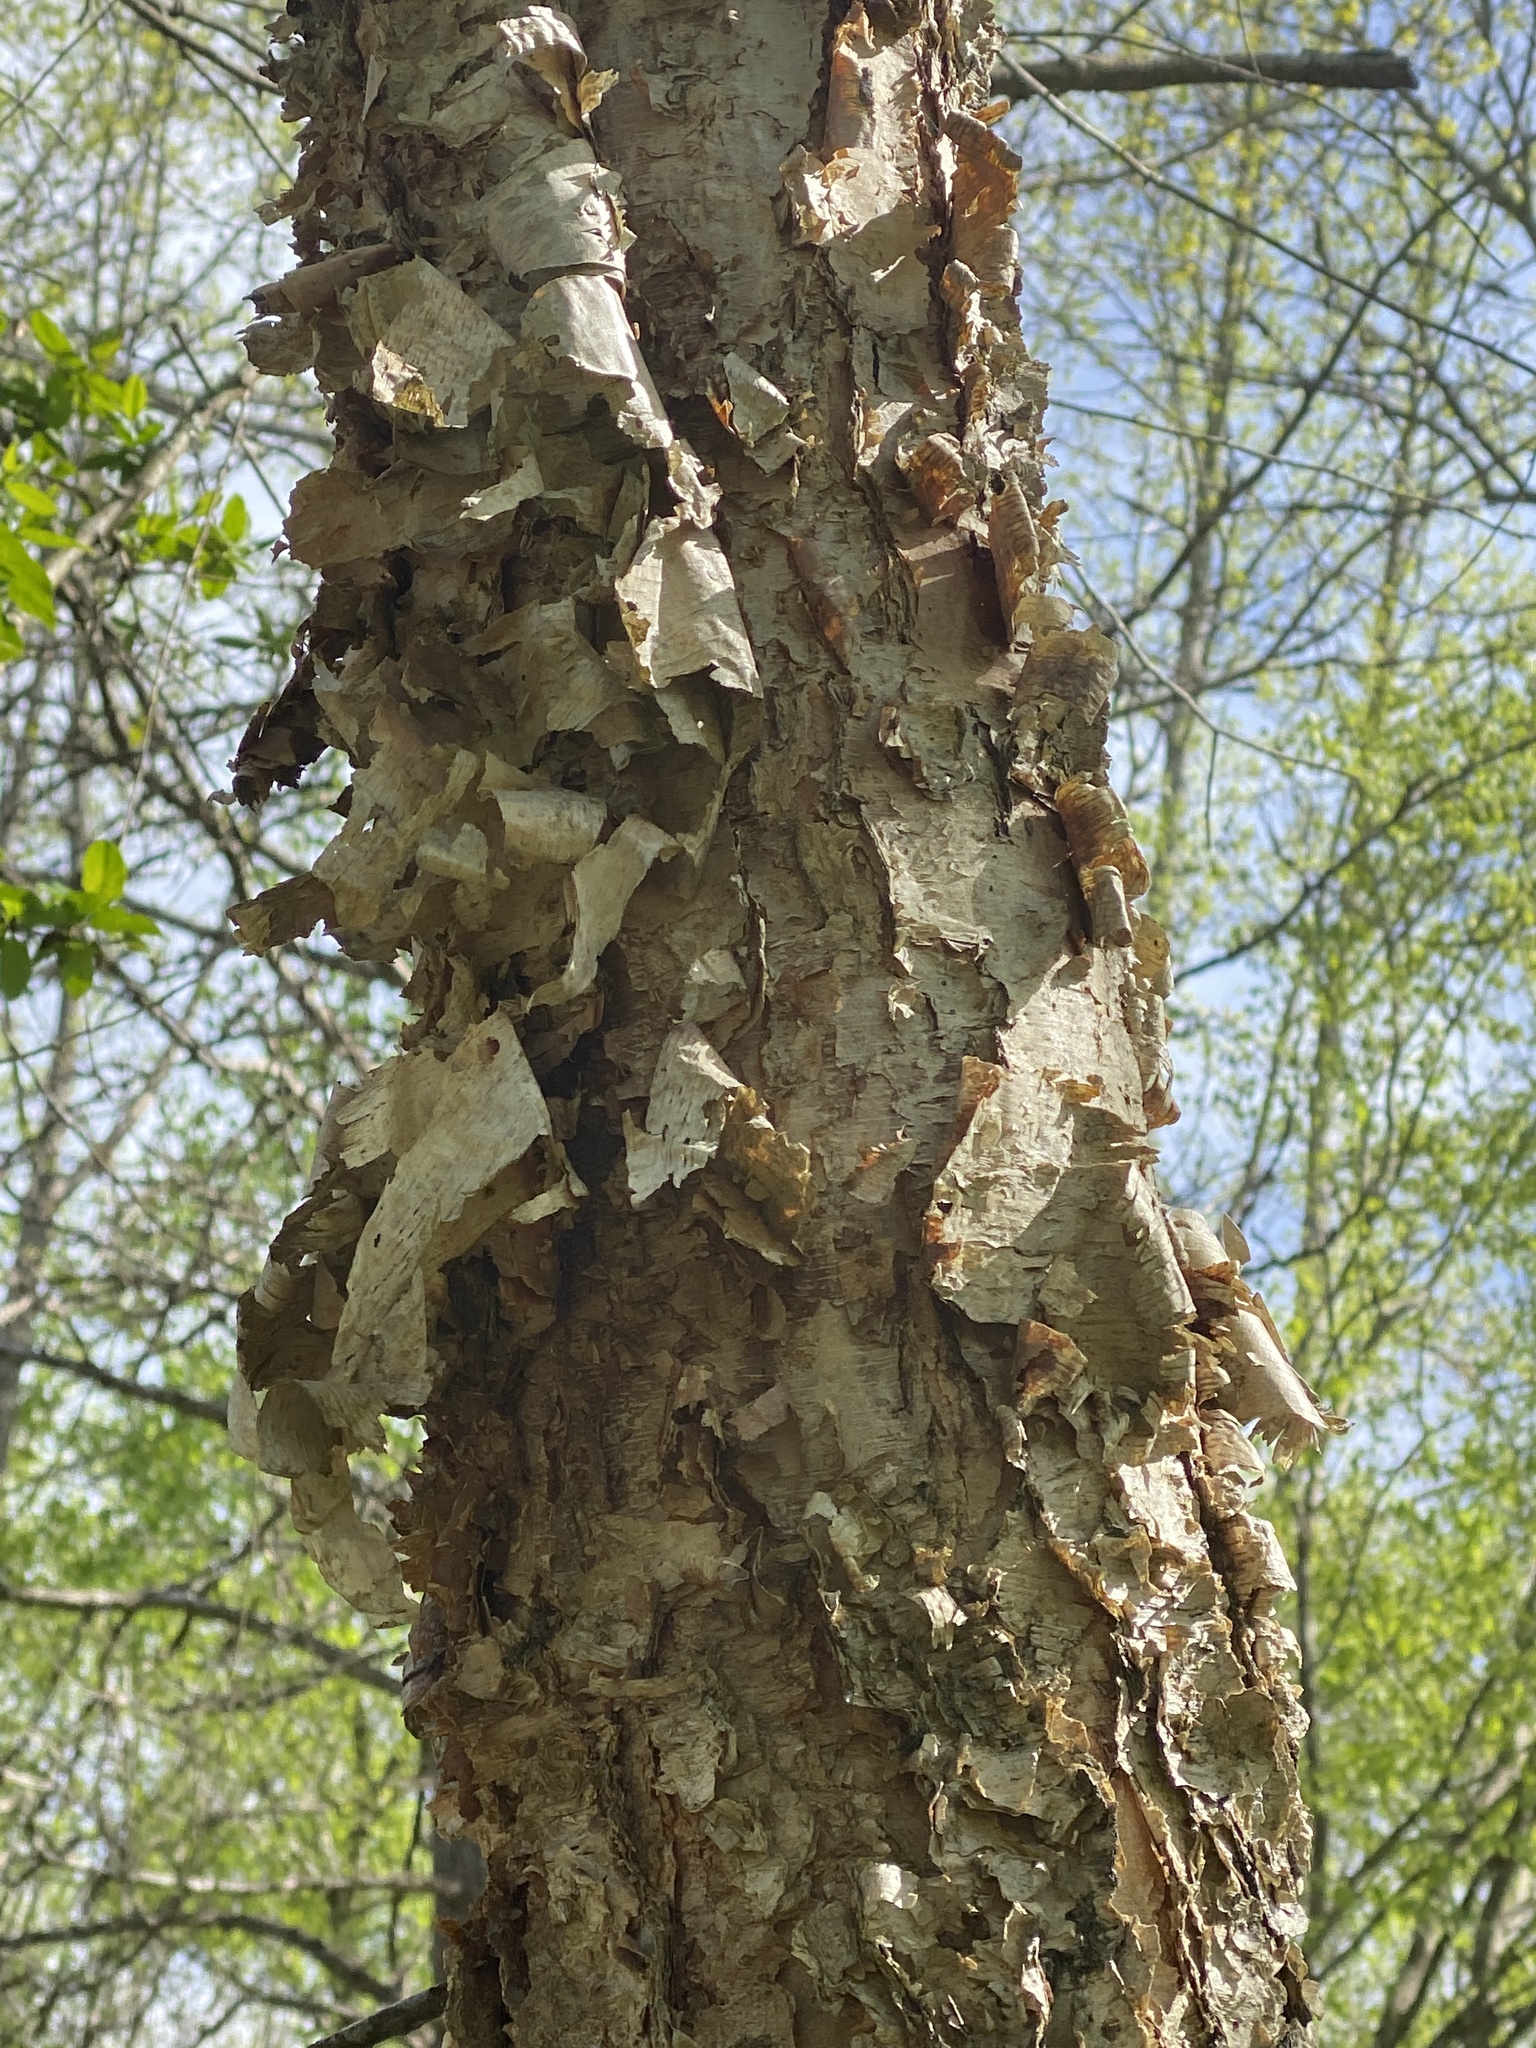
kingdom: Plantae
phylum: Tracheophyta
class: Magnoliopsida
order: Fagales
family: Betulaceae
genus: Betula
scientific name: Betula nigra
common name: Black birch
